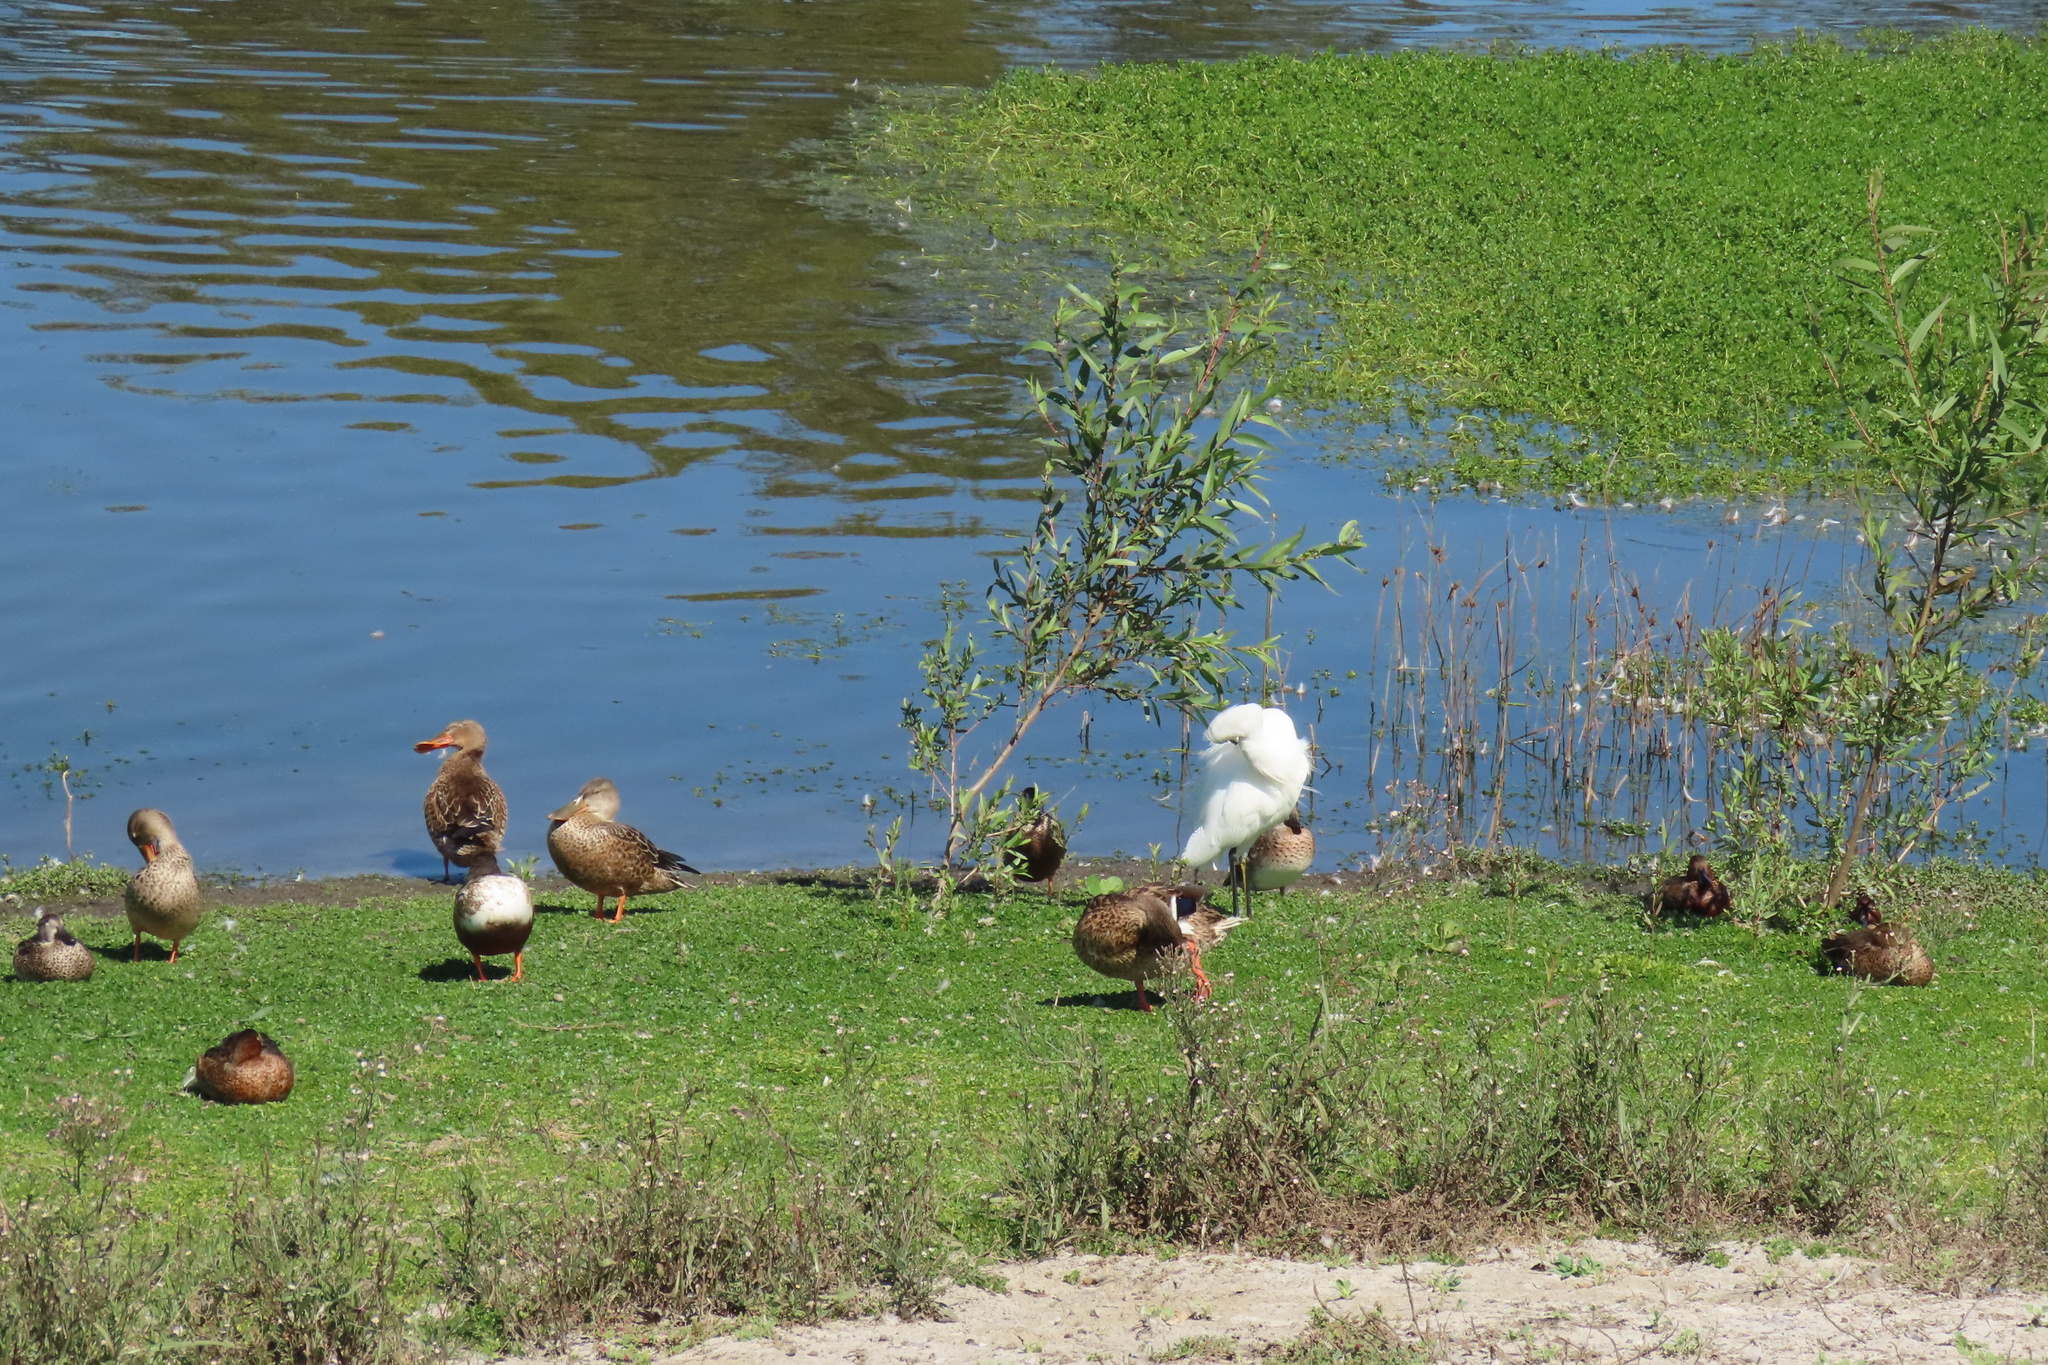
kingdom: Animalia
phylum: Chordata
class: Aves
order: Pelecaniformes
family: Ardeidae
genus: Egretta
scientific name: Egretta thula
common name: Snowy egret
